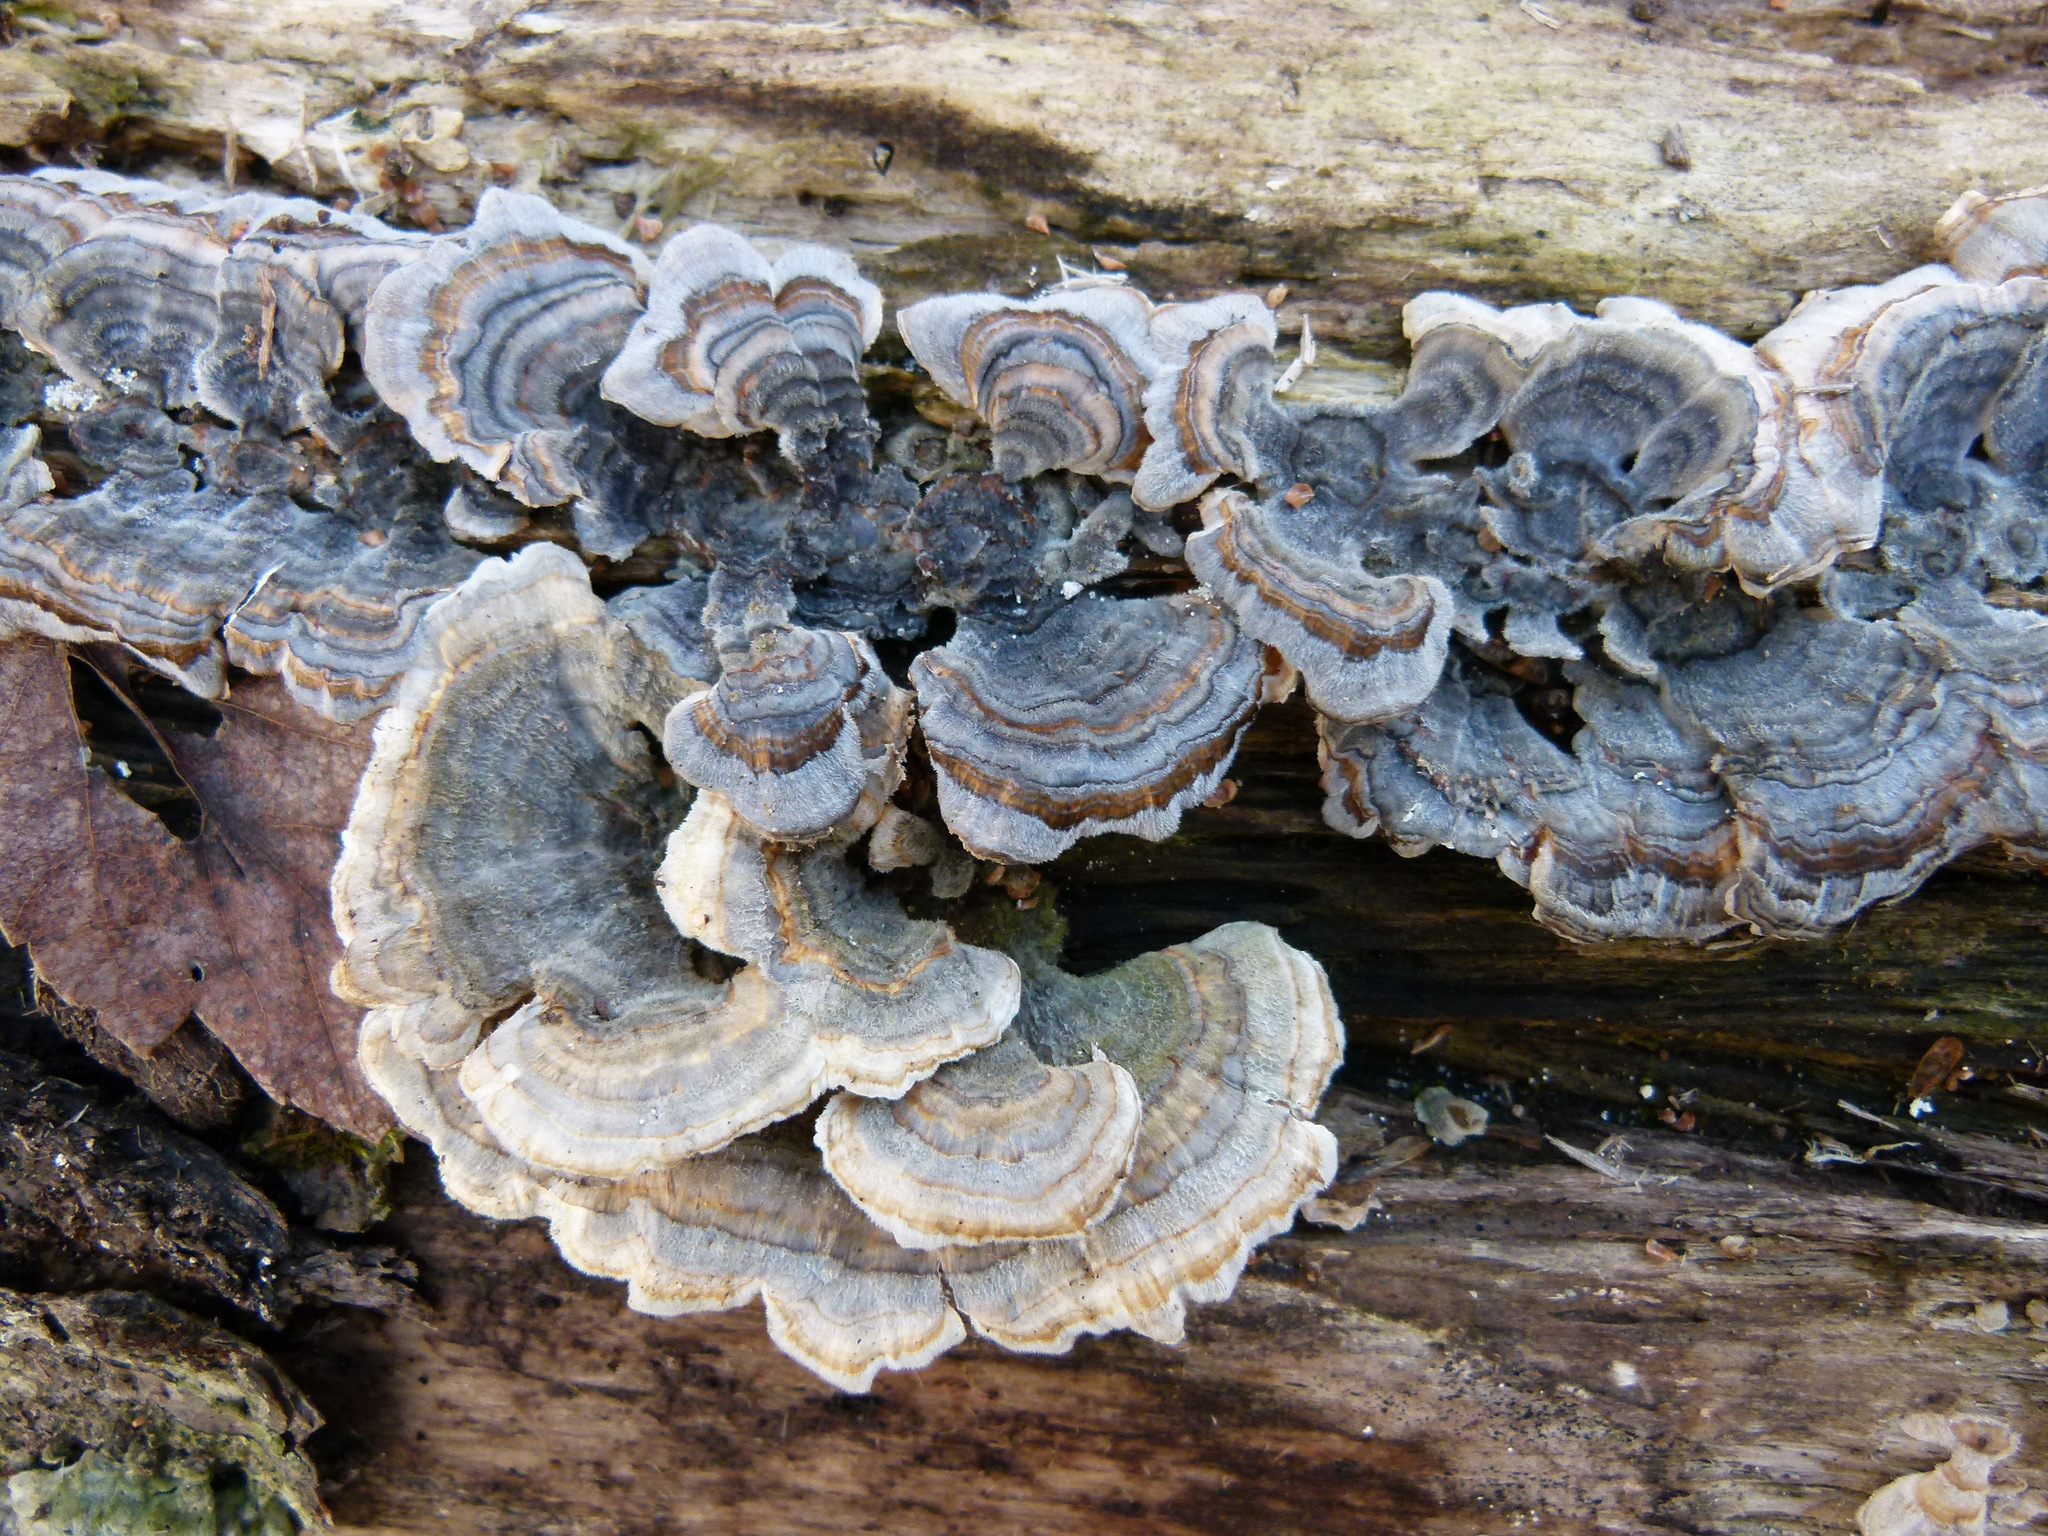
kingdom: Fungi
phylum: Basidiomycota
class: Agaricomycetes
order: Polyporales
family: Polyporaceae
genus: Trametes
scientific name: Trametes versicolor
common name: Turkeytail
